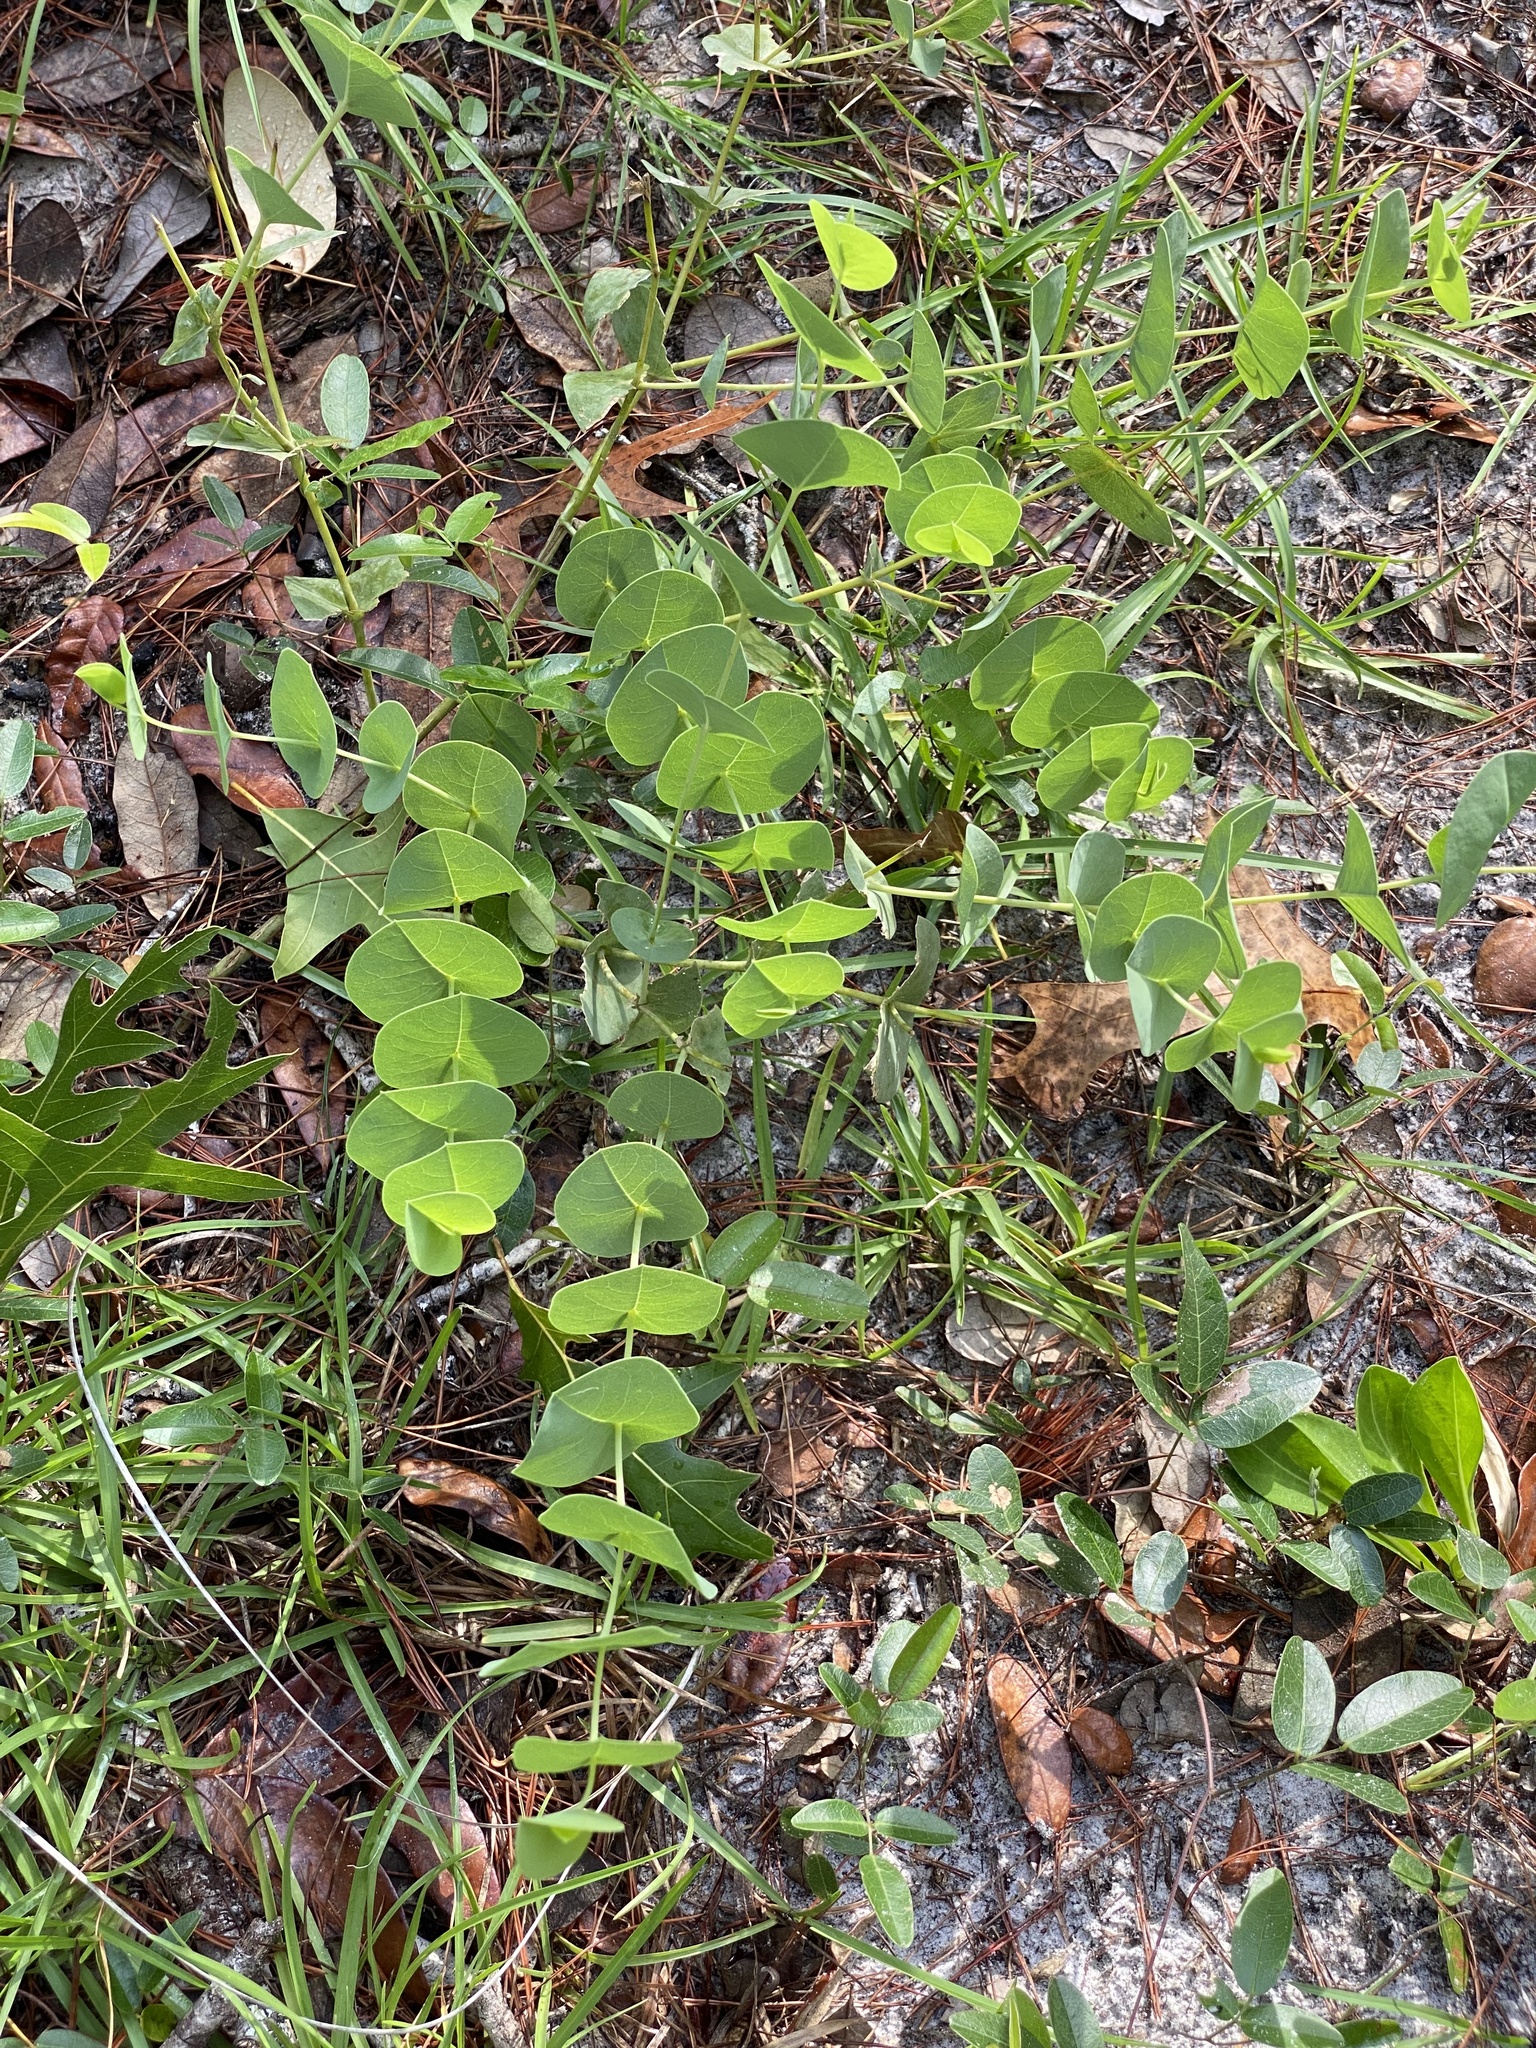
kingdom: Plantae
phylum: Tracheophyta
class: Magnoliopsida
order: Fabales
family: Fabaceae
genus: Baptisia
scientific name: Baptisia perfoliata
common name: Catbells
